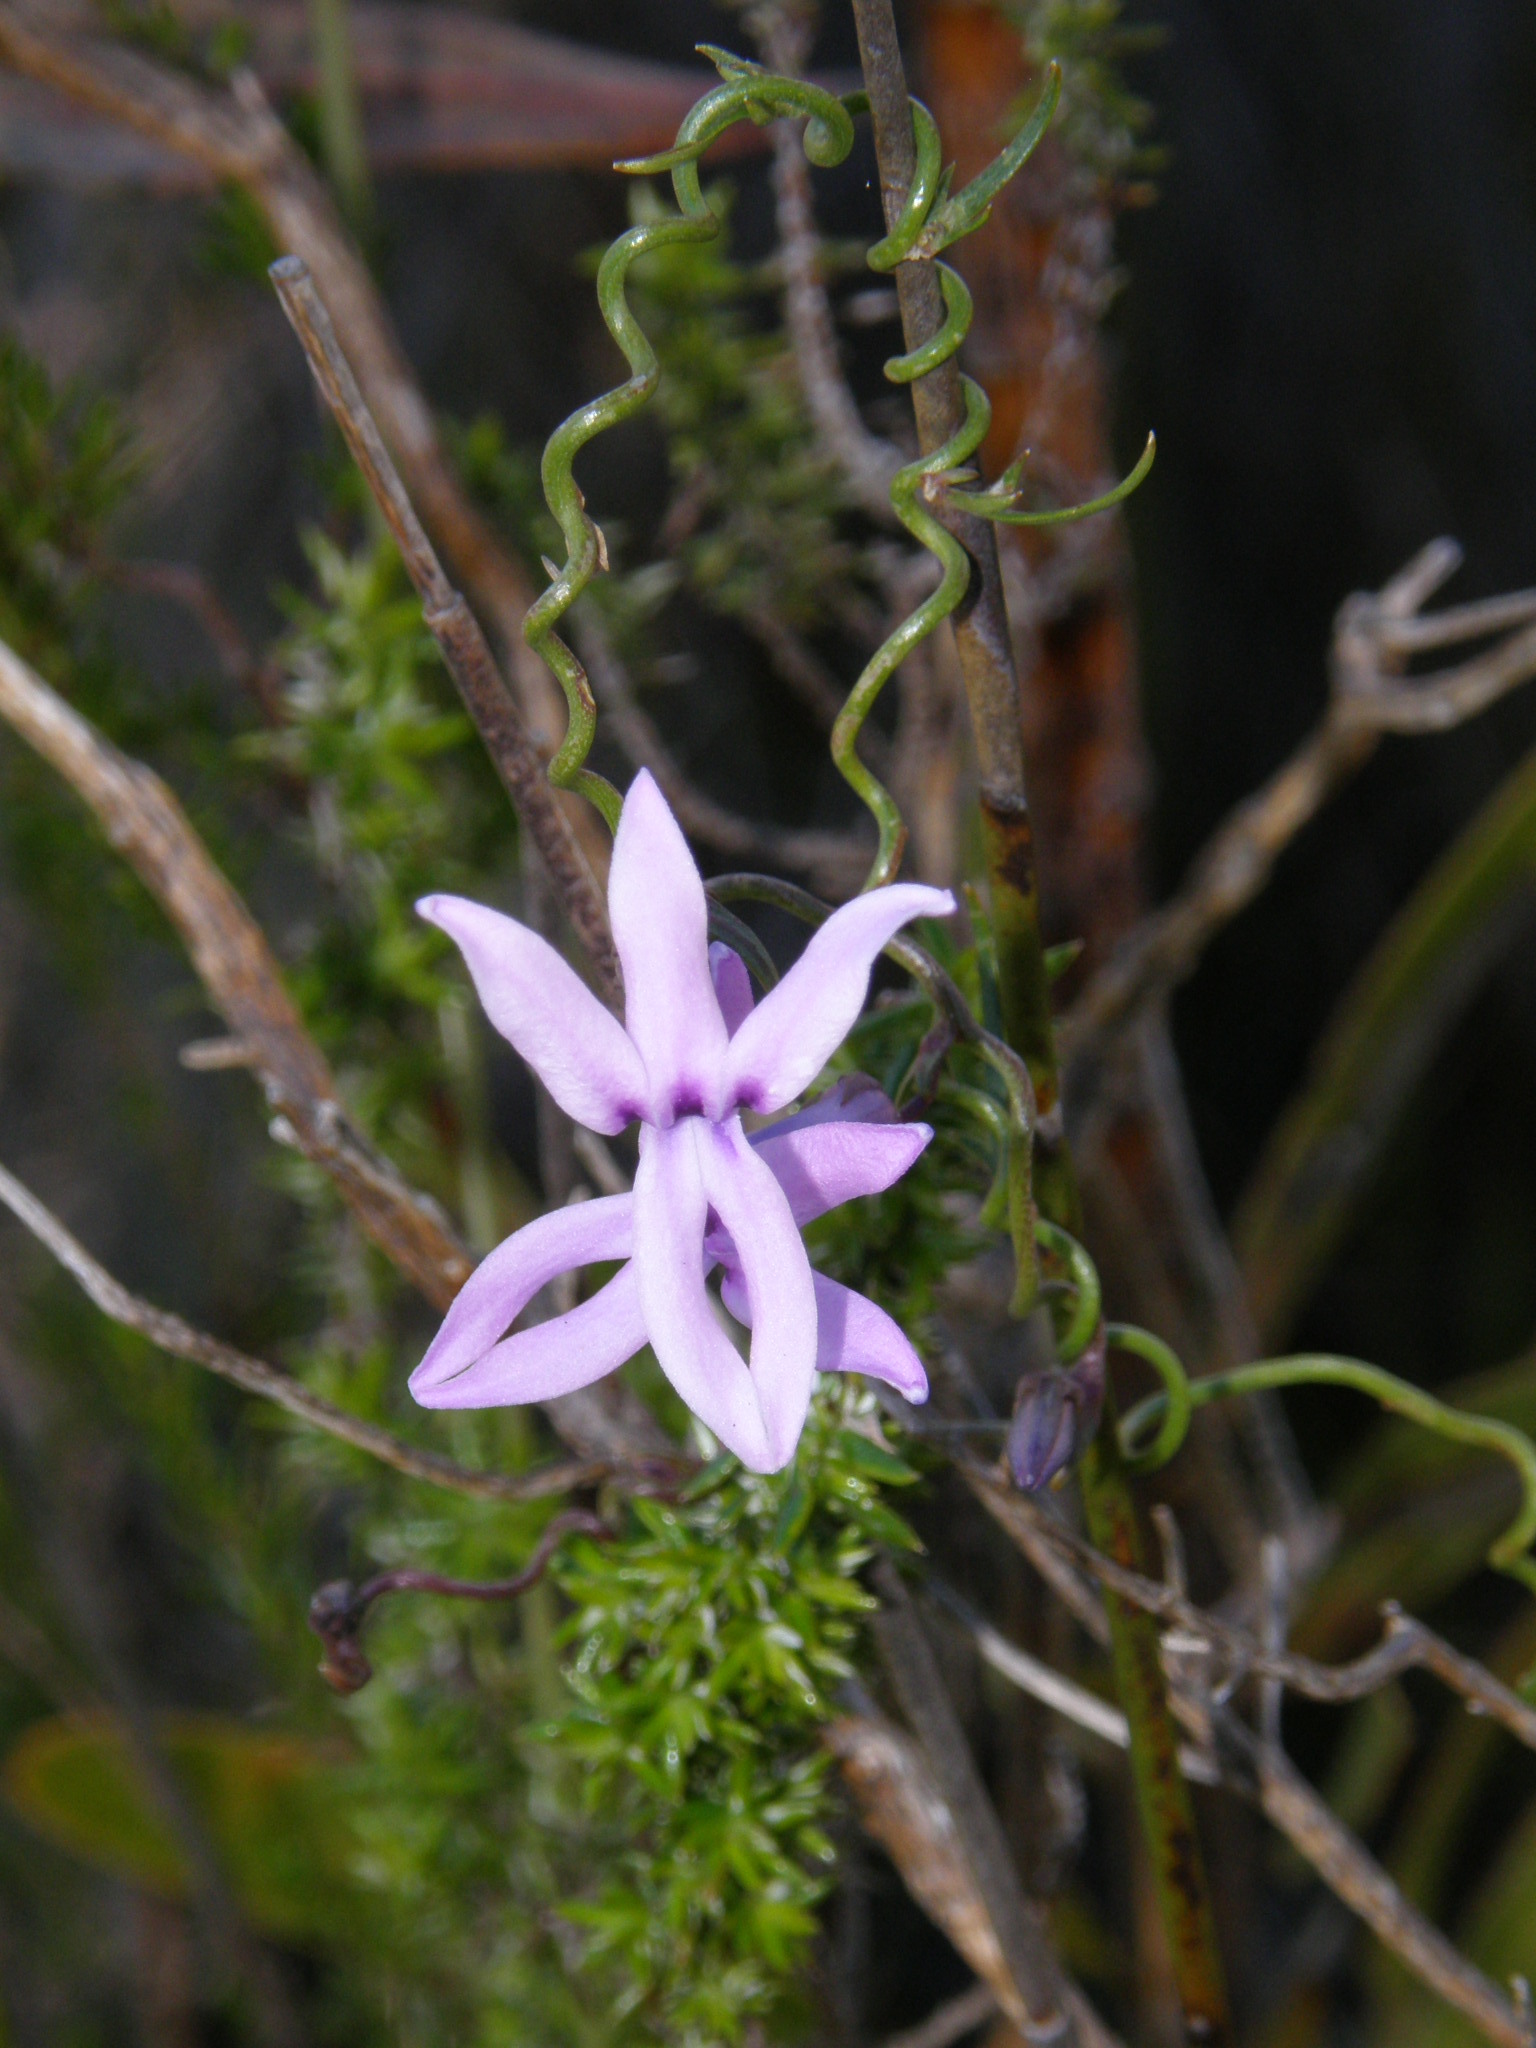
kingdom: Plantae
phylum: Tracheophyta
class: Magnoliopsida
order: Asterales
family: Campanulaceae
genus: Cyphia
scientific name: Cyphia volubilis
